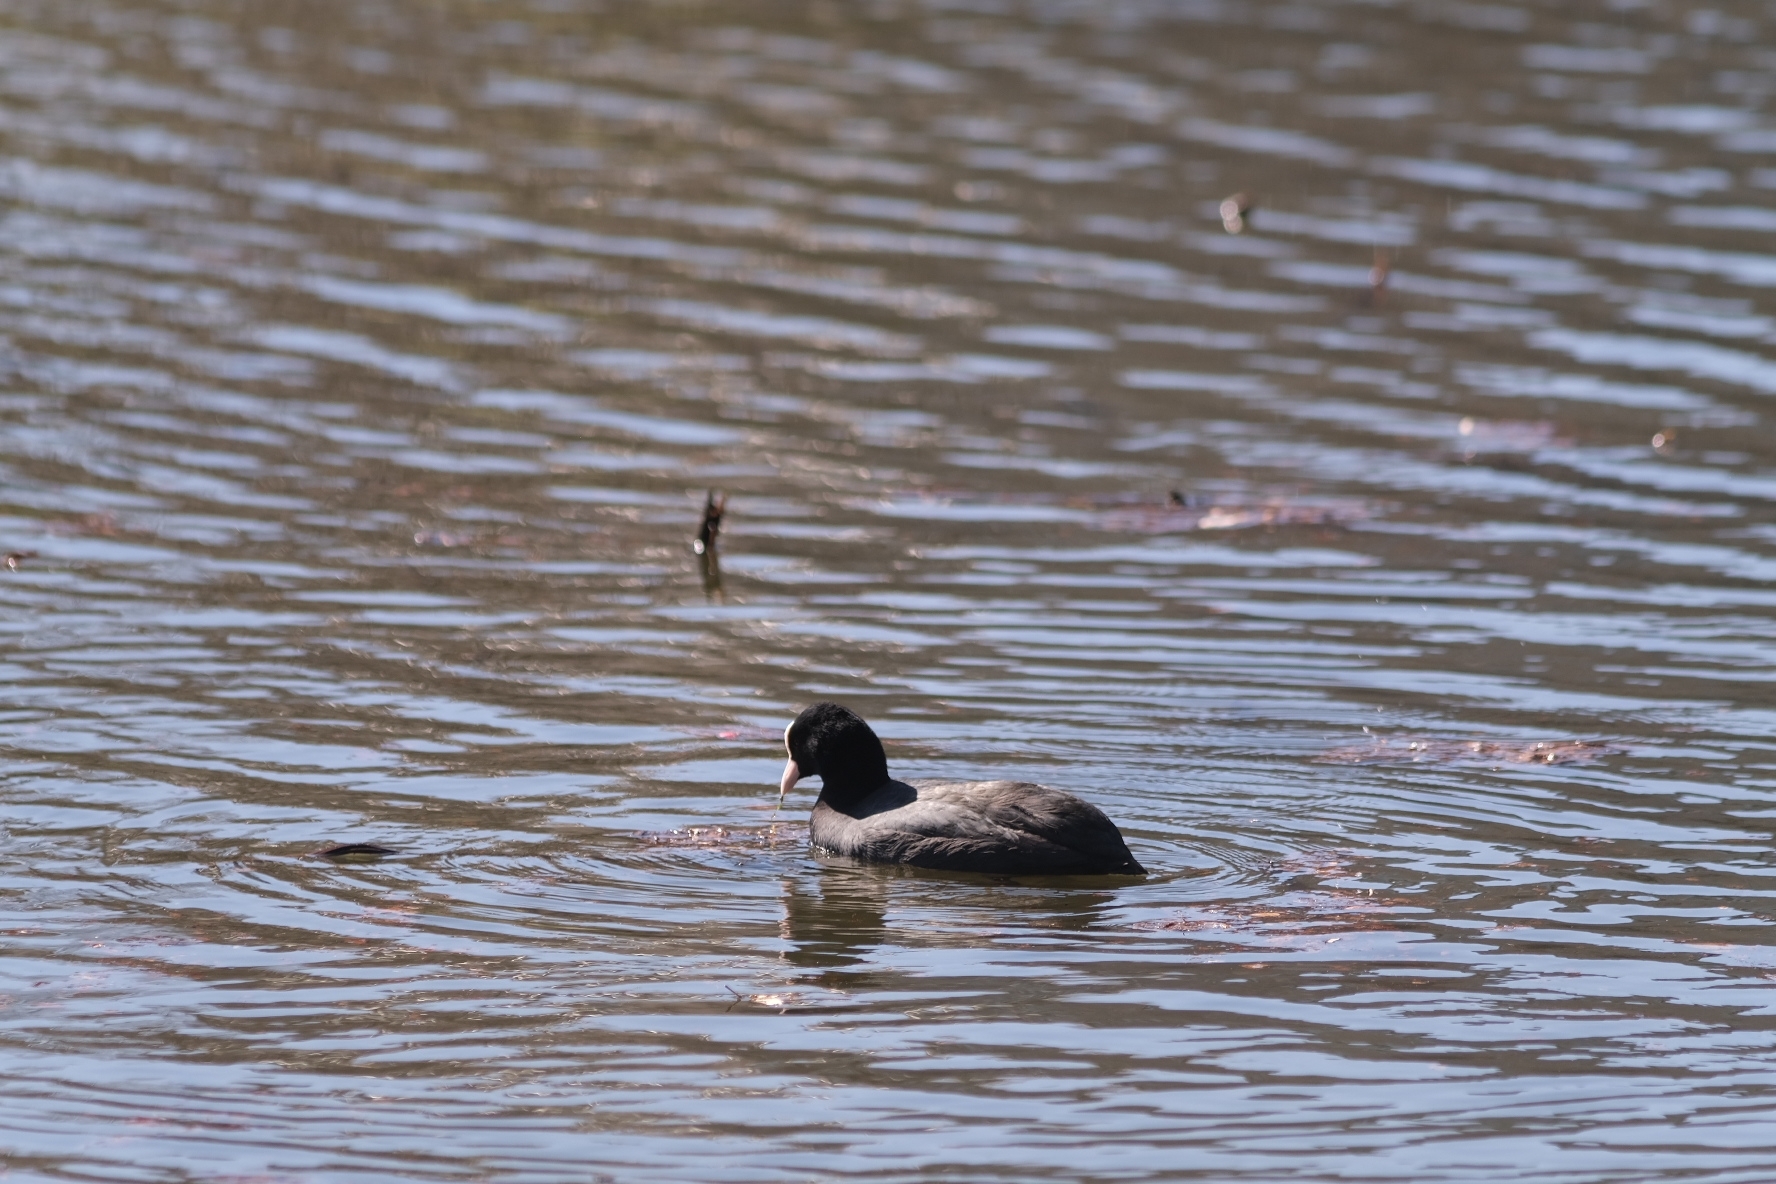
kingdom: Animalia
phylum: Chordata
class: Aves
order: Gruiformes
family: Rallidae
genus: Fulica
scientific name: Fulica atra
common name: Eurasian coot
